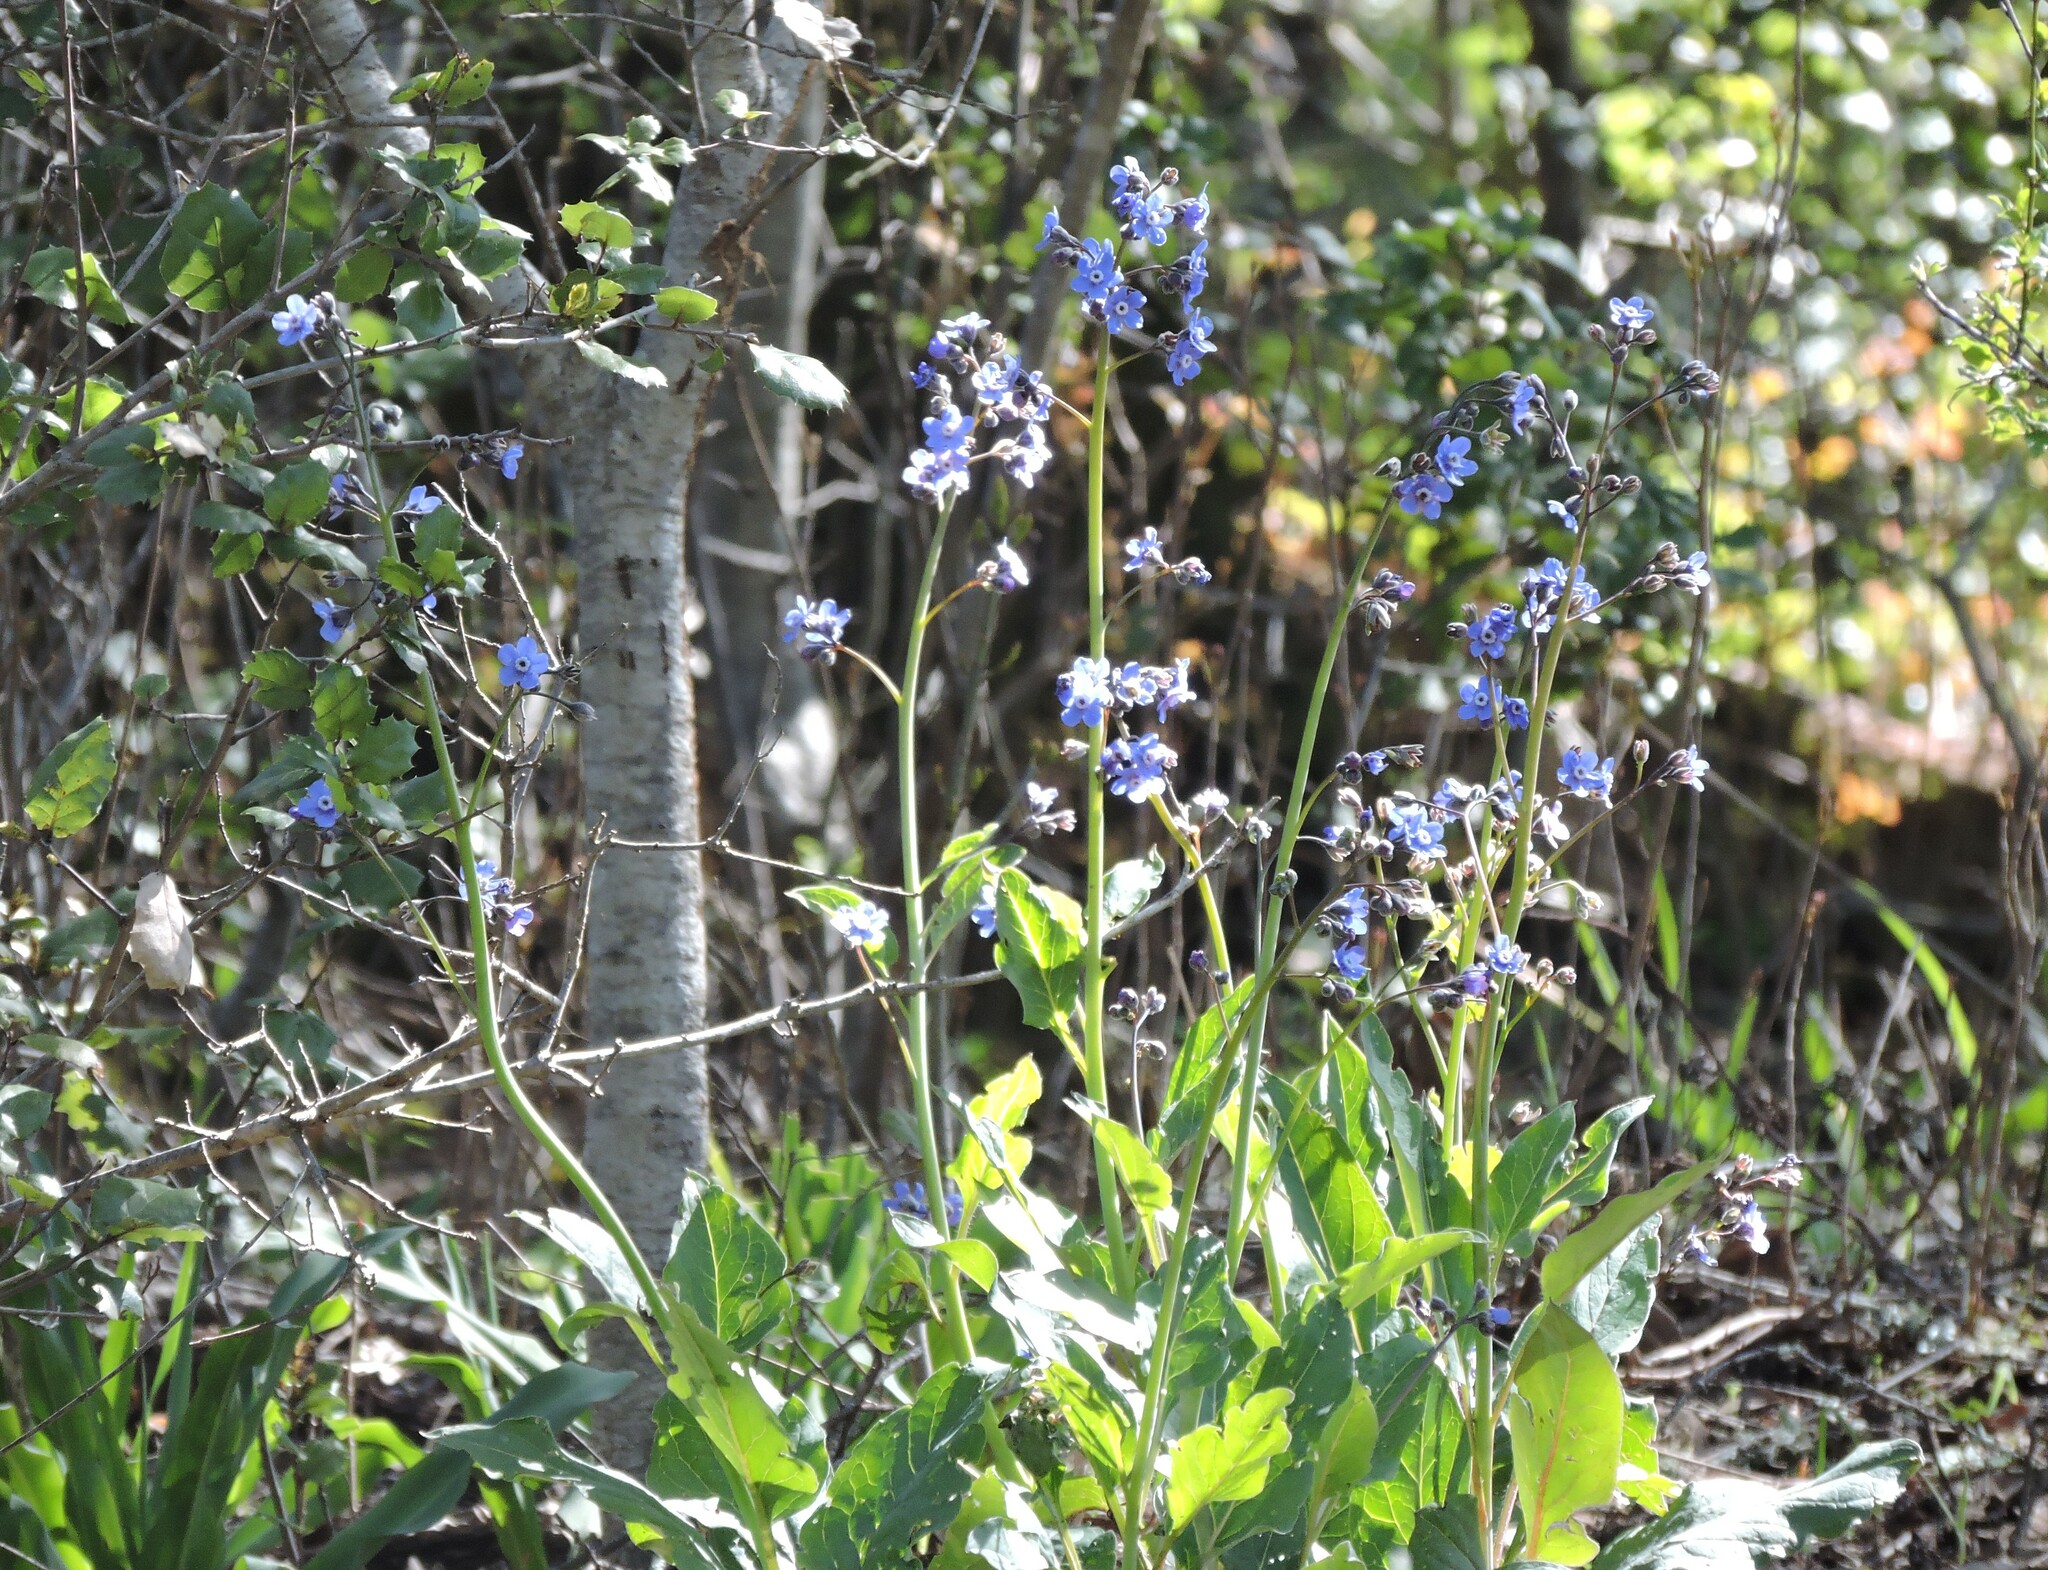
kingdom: Plantae
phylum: Tracheophyta
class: Magnoliopsida
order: Boraginales
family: Boraginaceae
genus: Adelinia
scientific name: Adelinia grande
